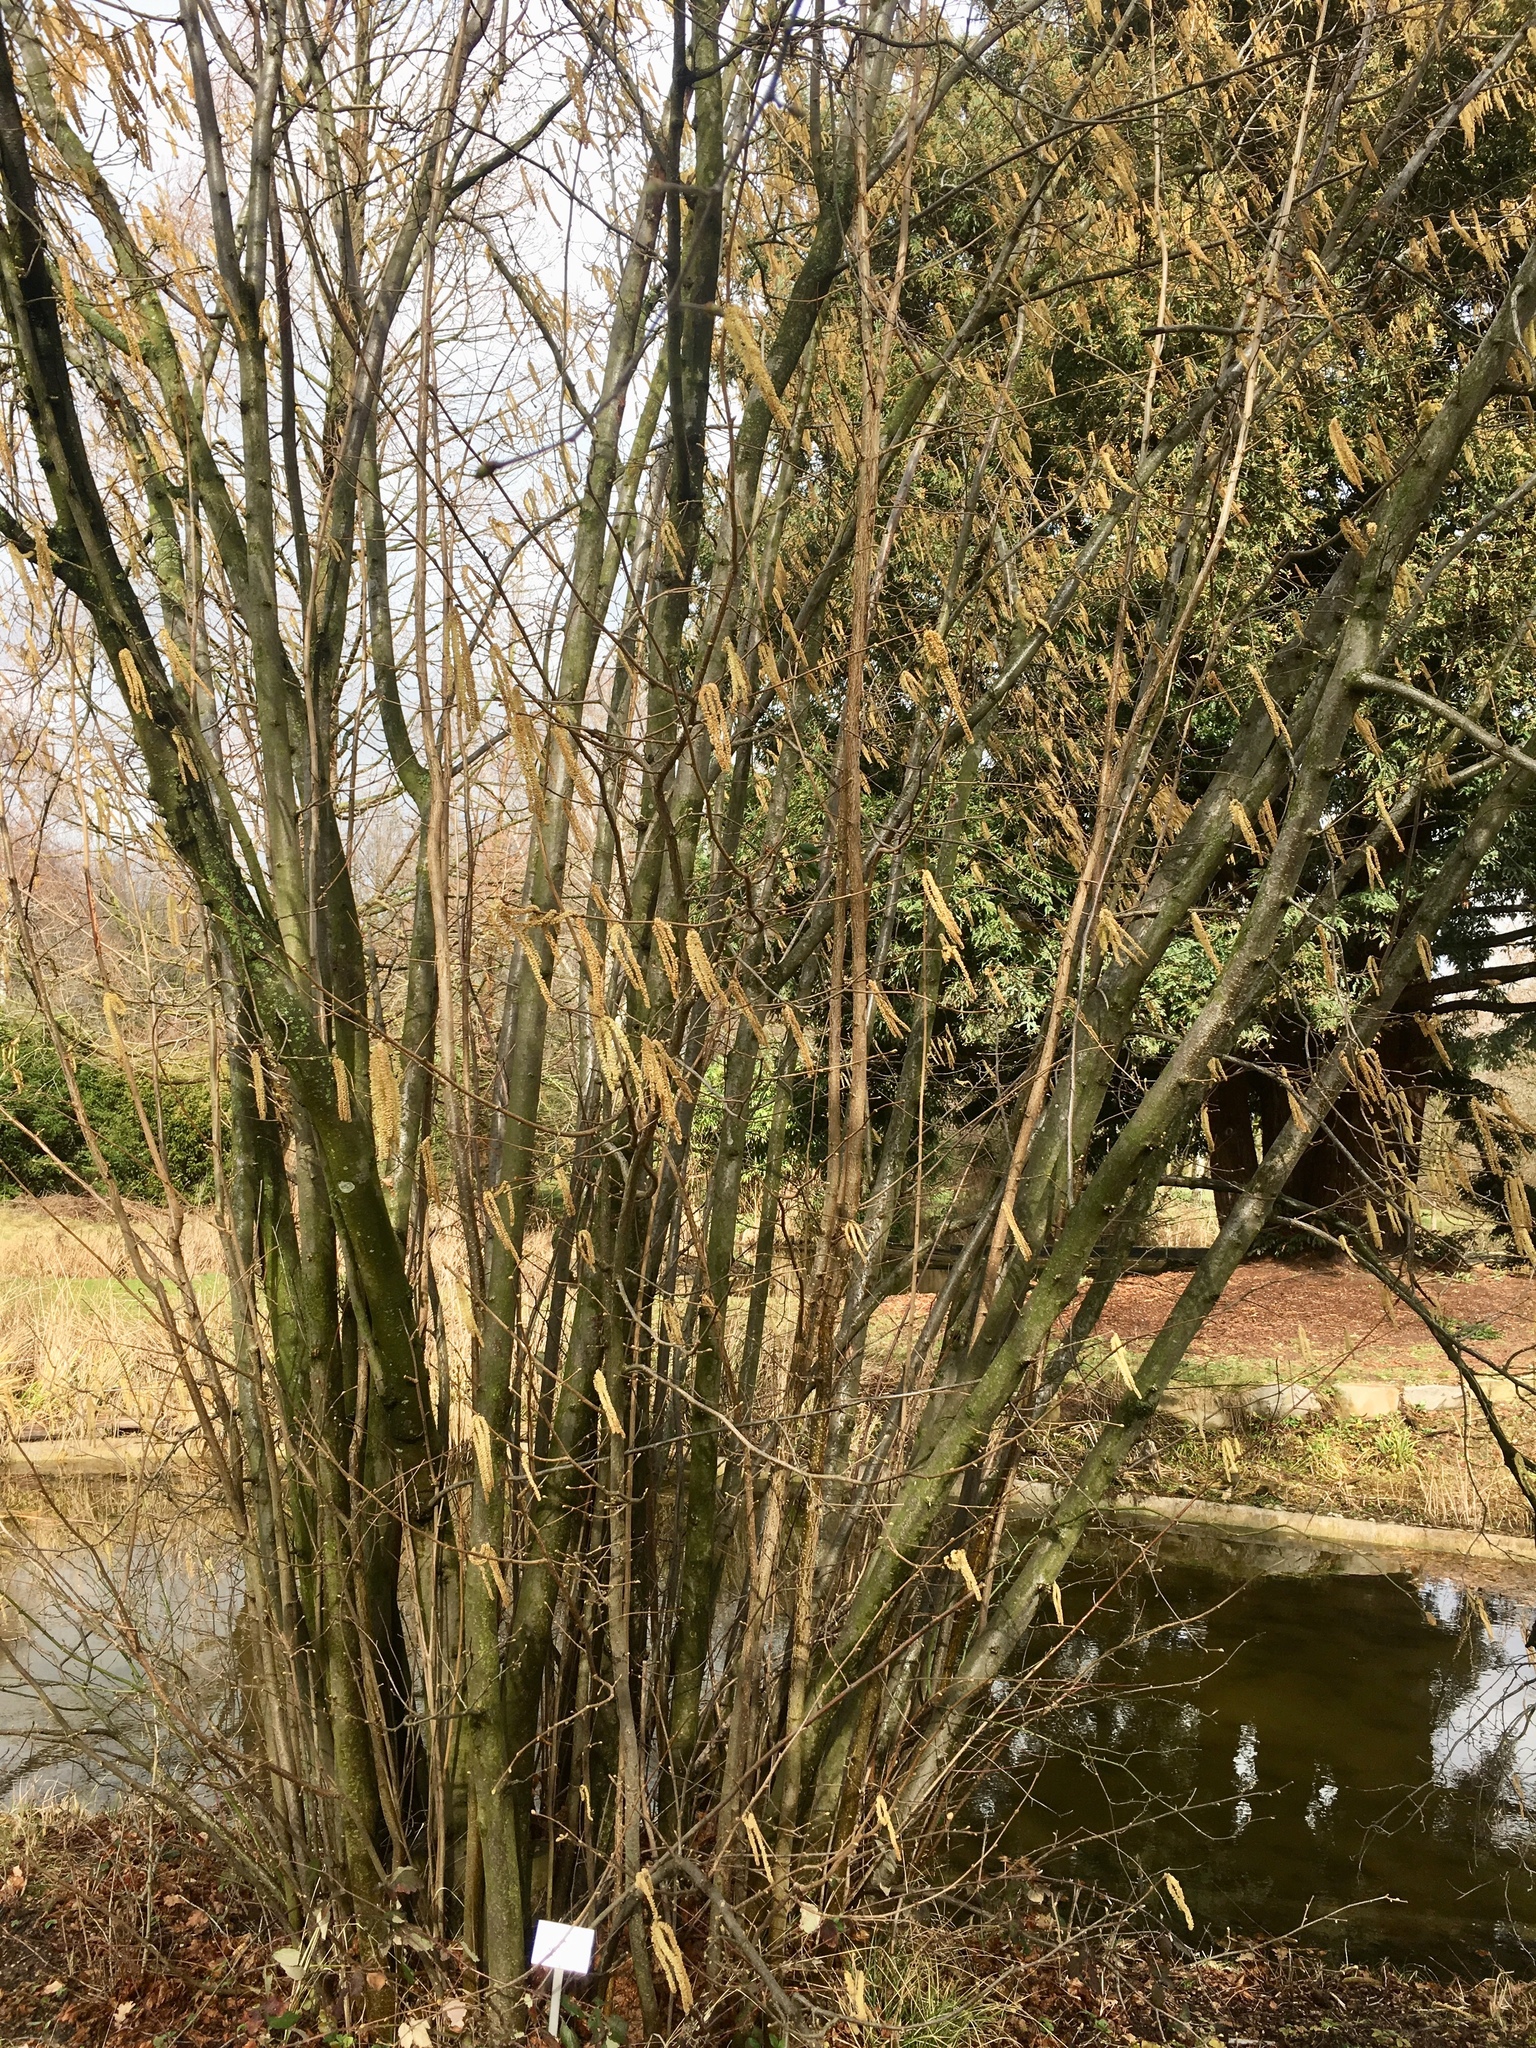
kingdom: Plantae
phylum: Tracheophyta
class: Magnoliopsida
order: Fagales
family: Betulaceae
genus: Corylus
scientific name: Corylus avellana
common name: European hazel
